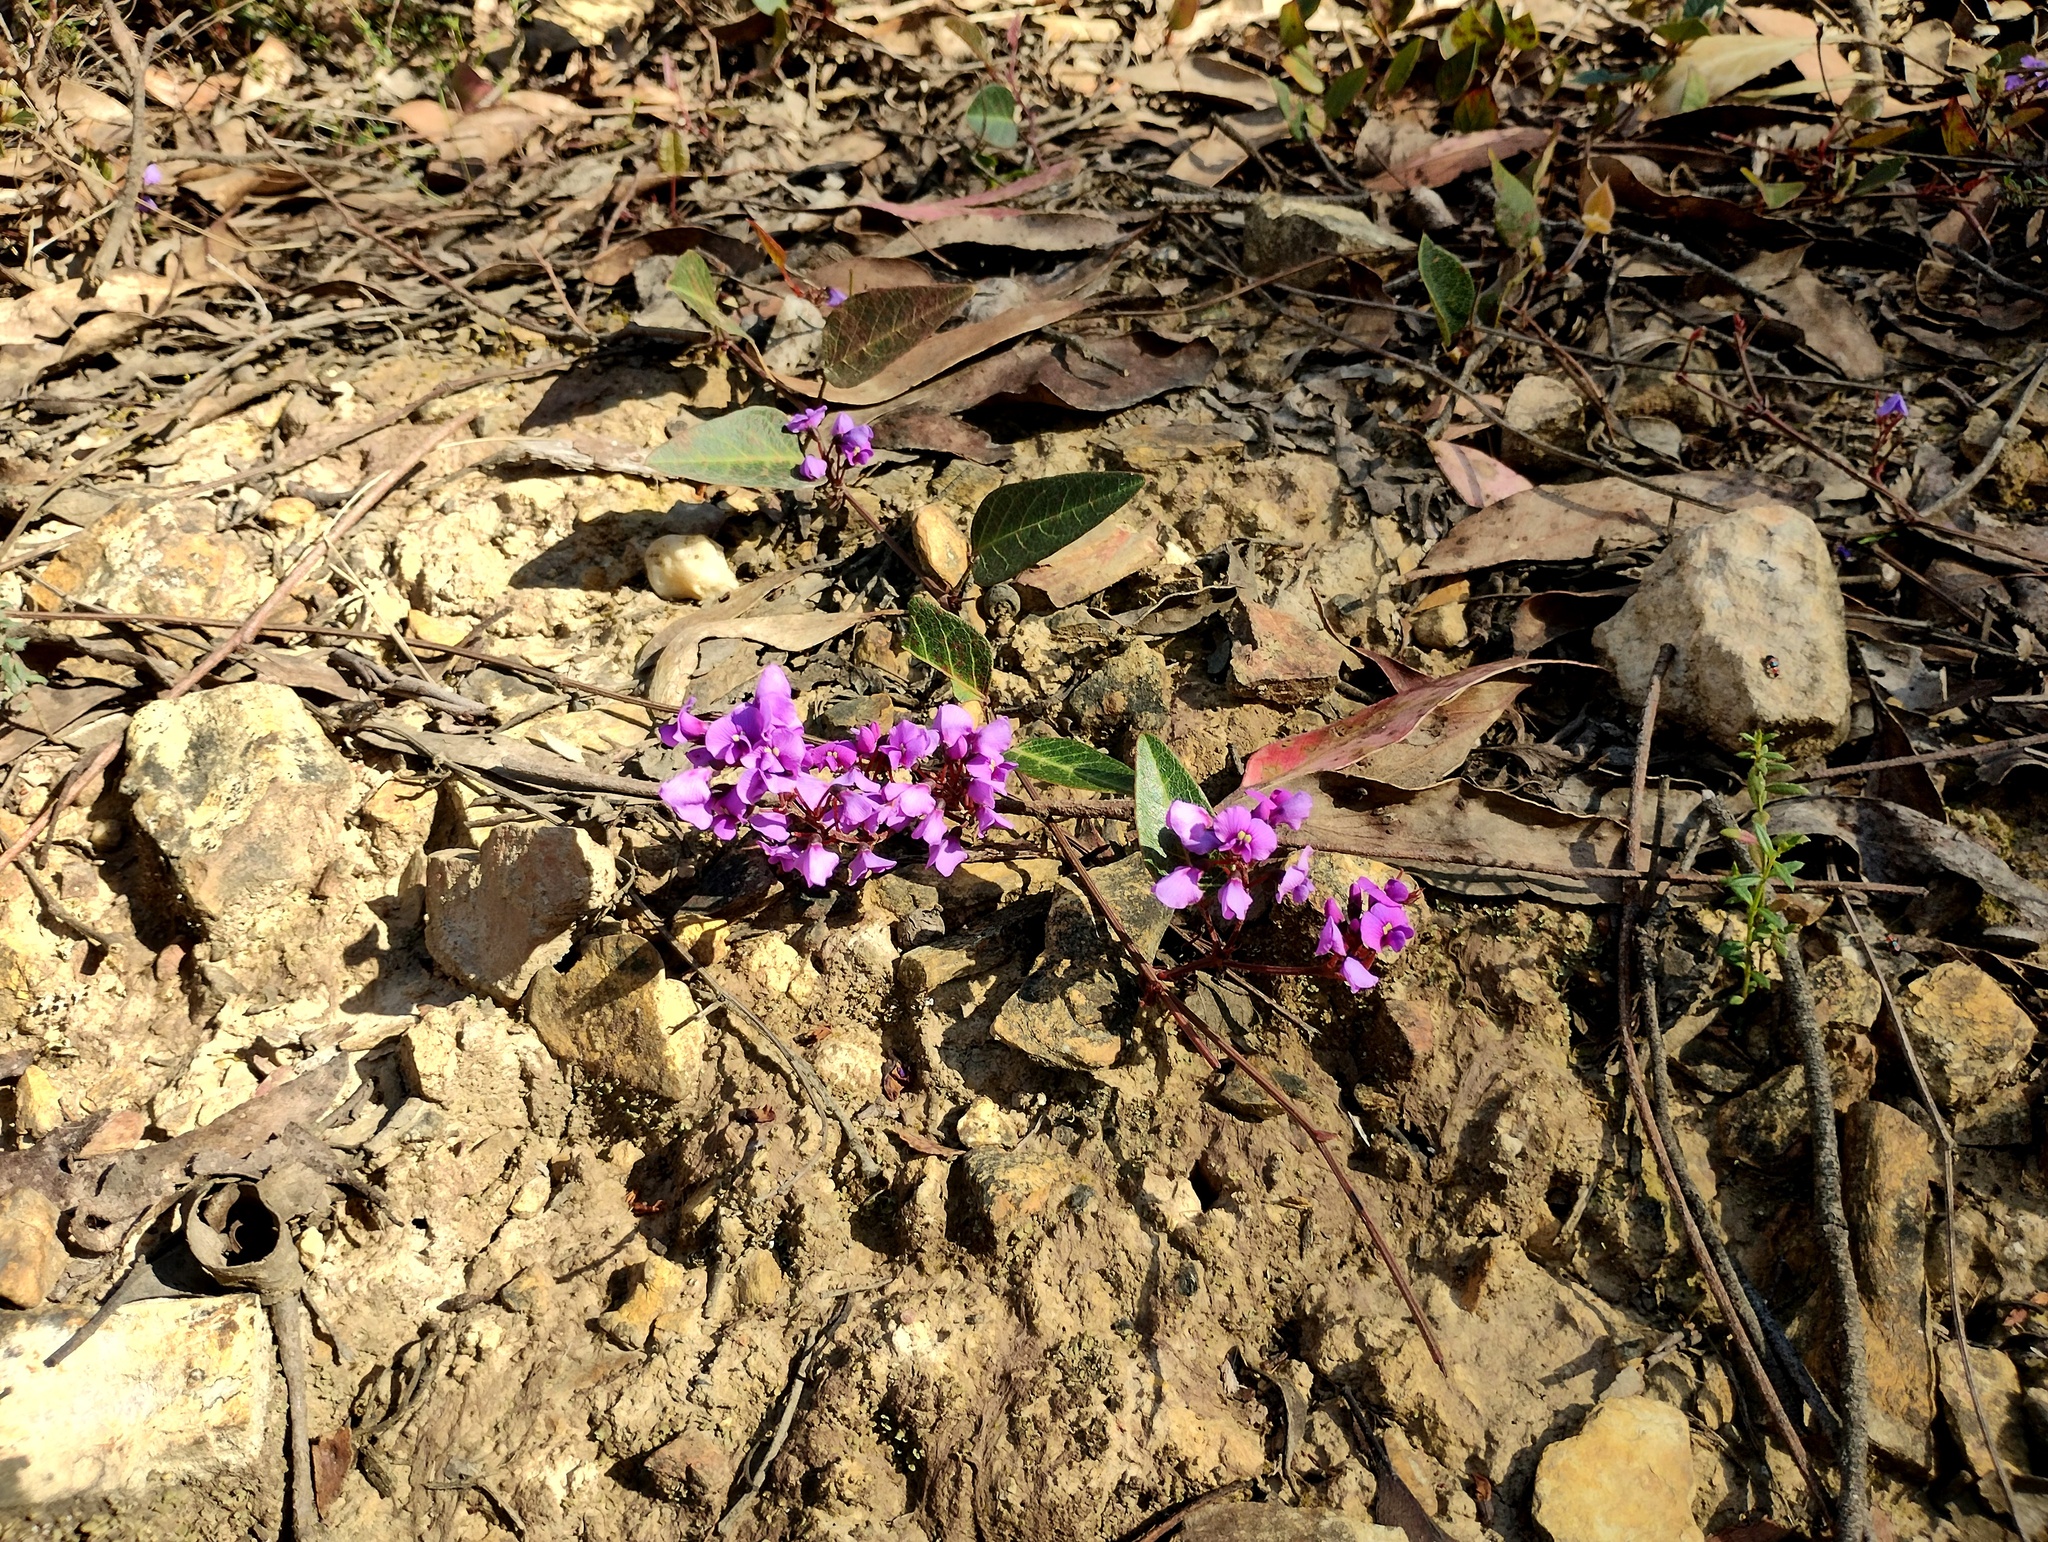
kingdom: Plantae
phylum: Tracheophyta
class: Magnoliopsida
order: Fabales
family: Fabaceae
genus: Hardenbergia
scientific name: Hardenbergia violacea
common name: Coral-pea
